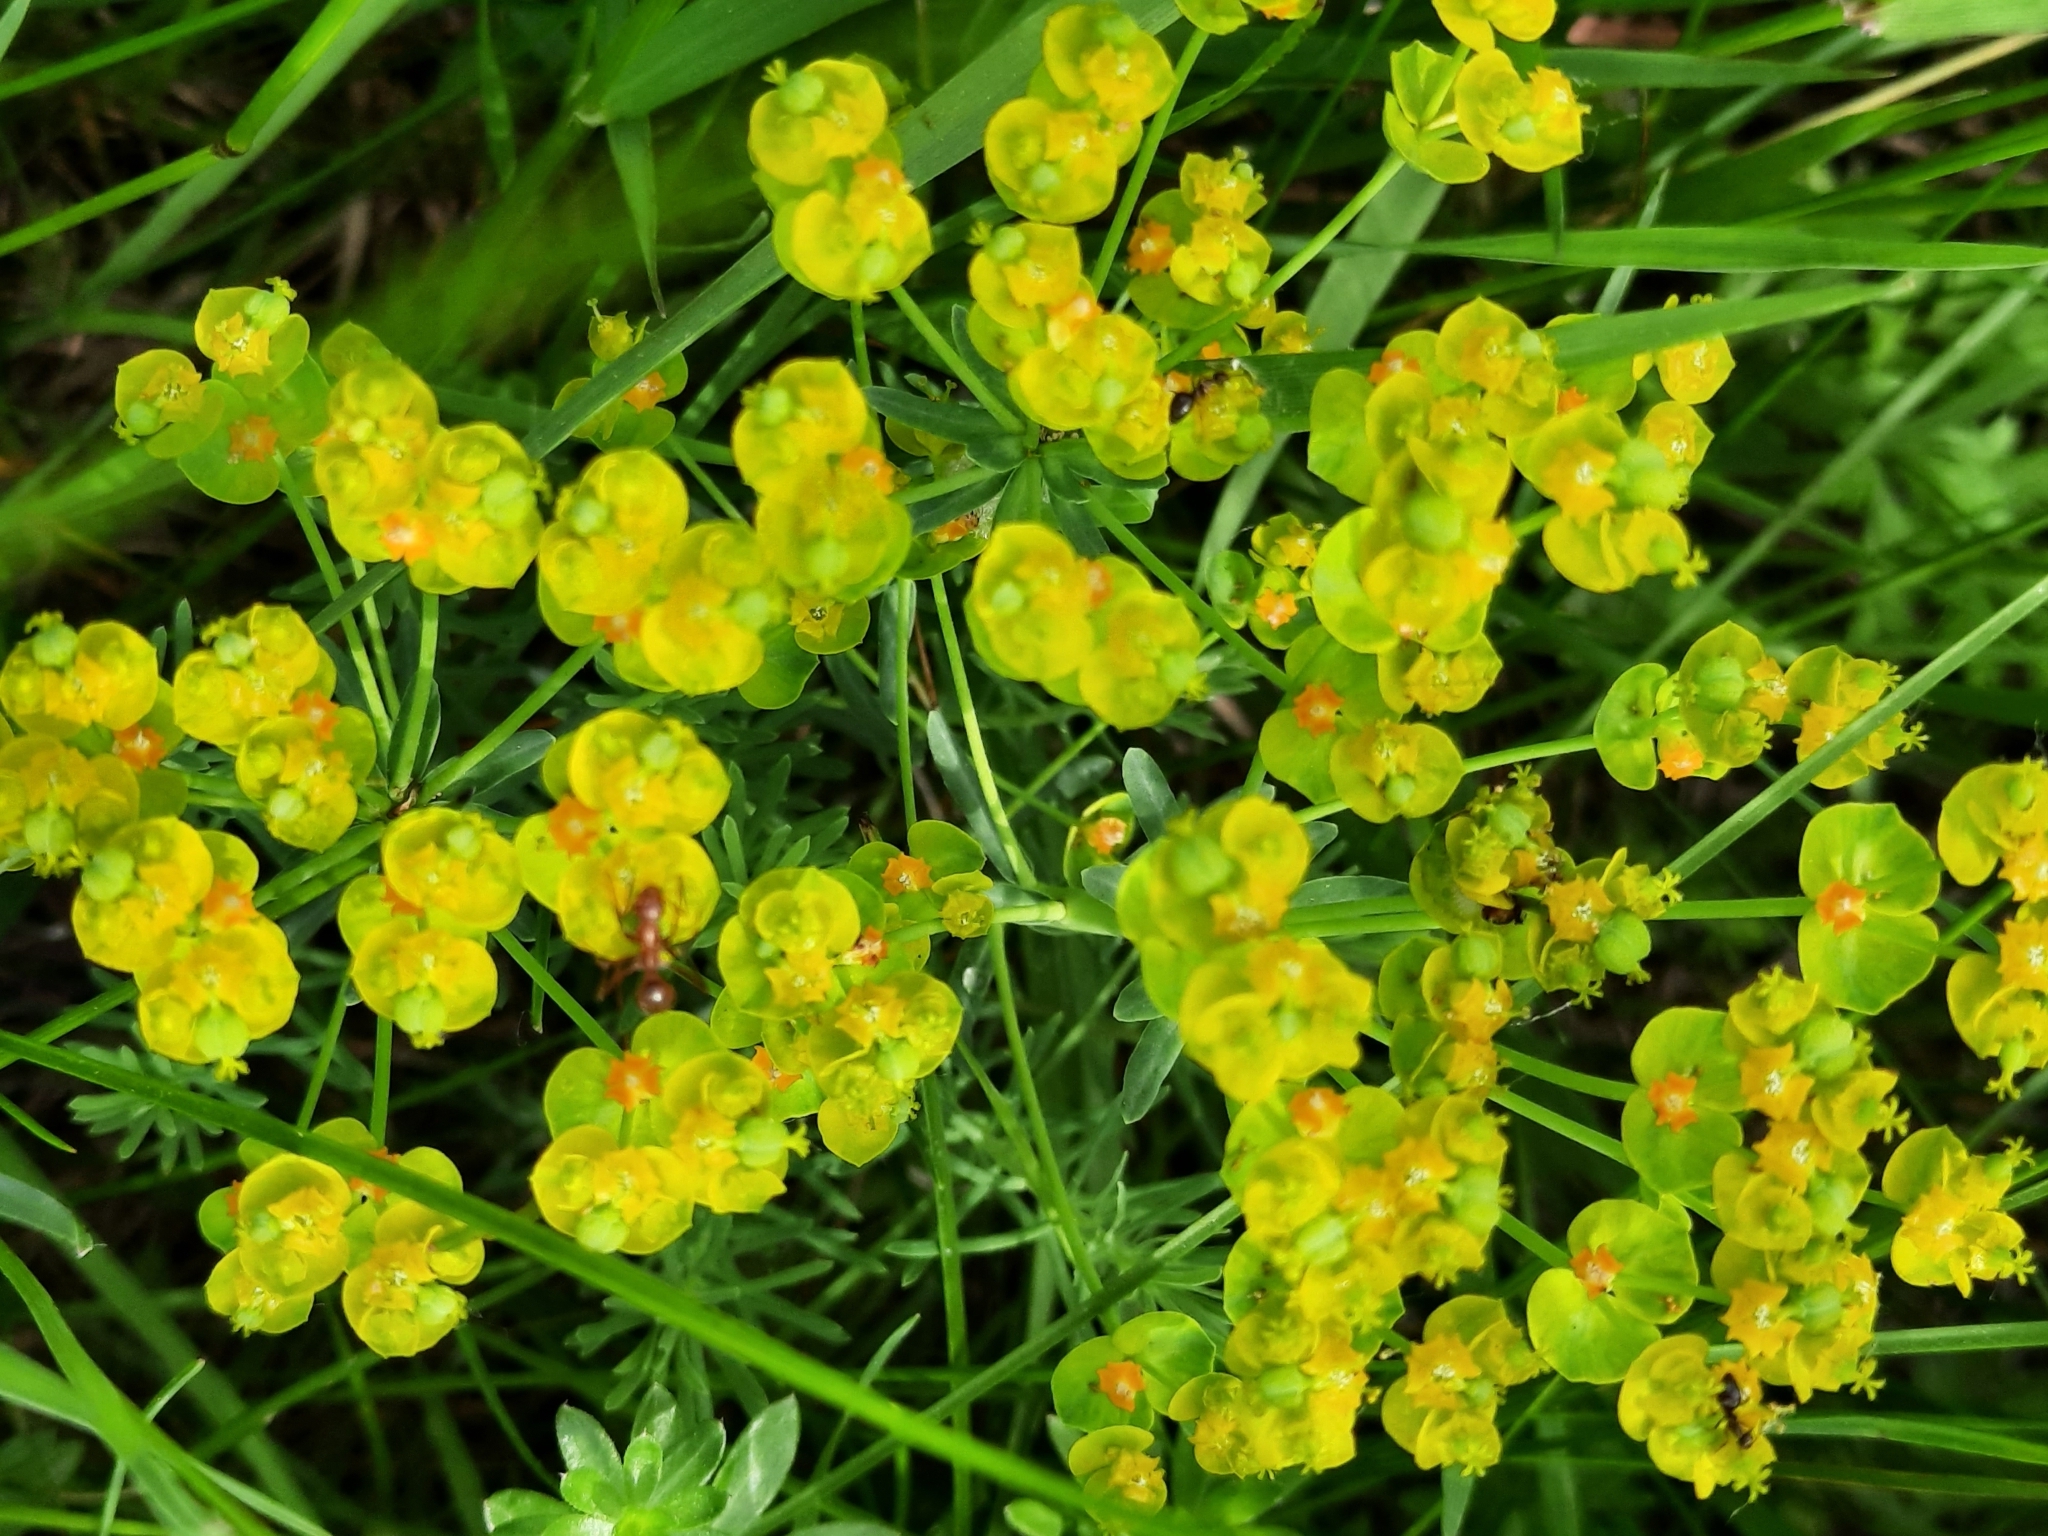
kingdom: Plantae
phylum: Tracheophyta
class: Magnoliopsida
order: Malpighiales
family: Euphorbiaceae
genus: Euphorbia
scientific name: Euphorbia cyparissias
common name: Cypress spurge
